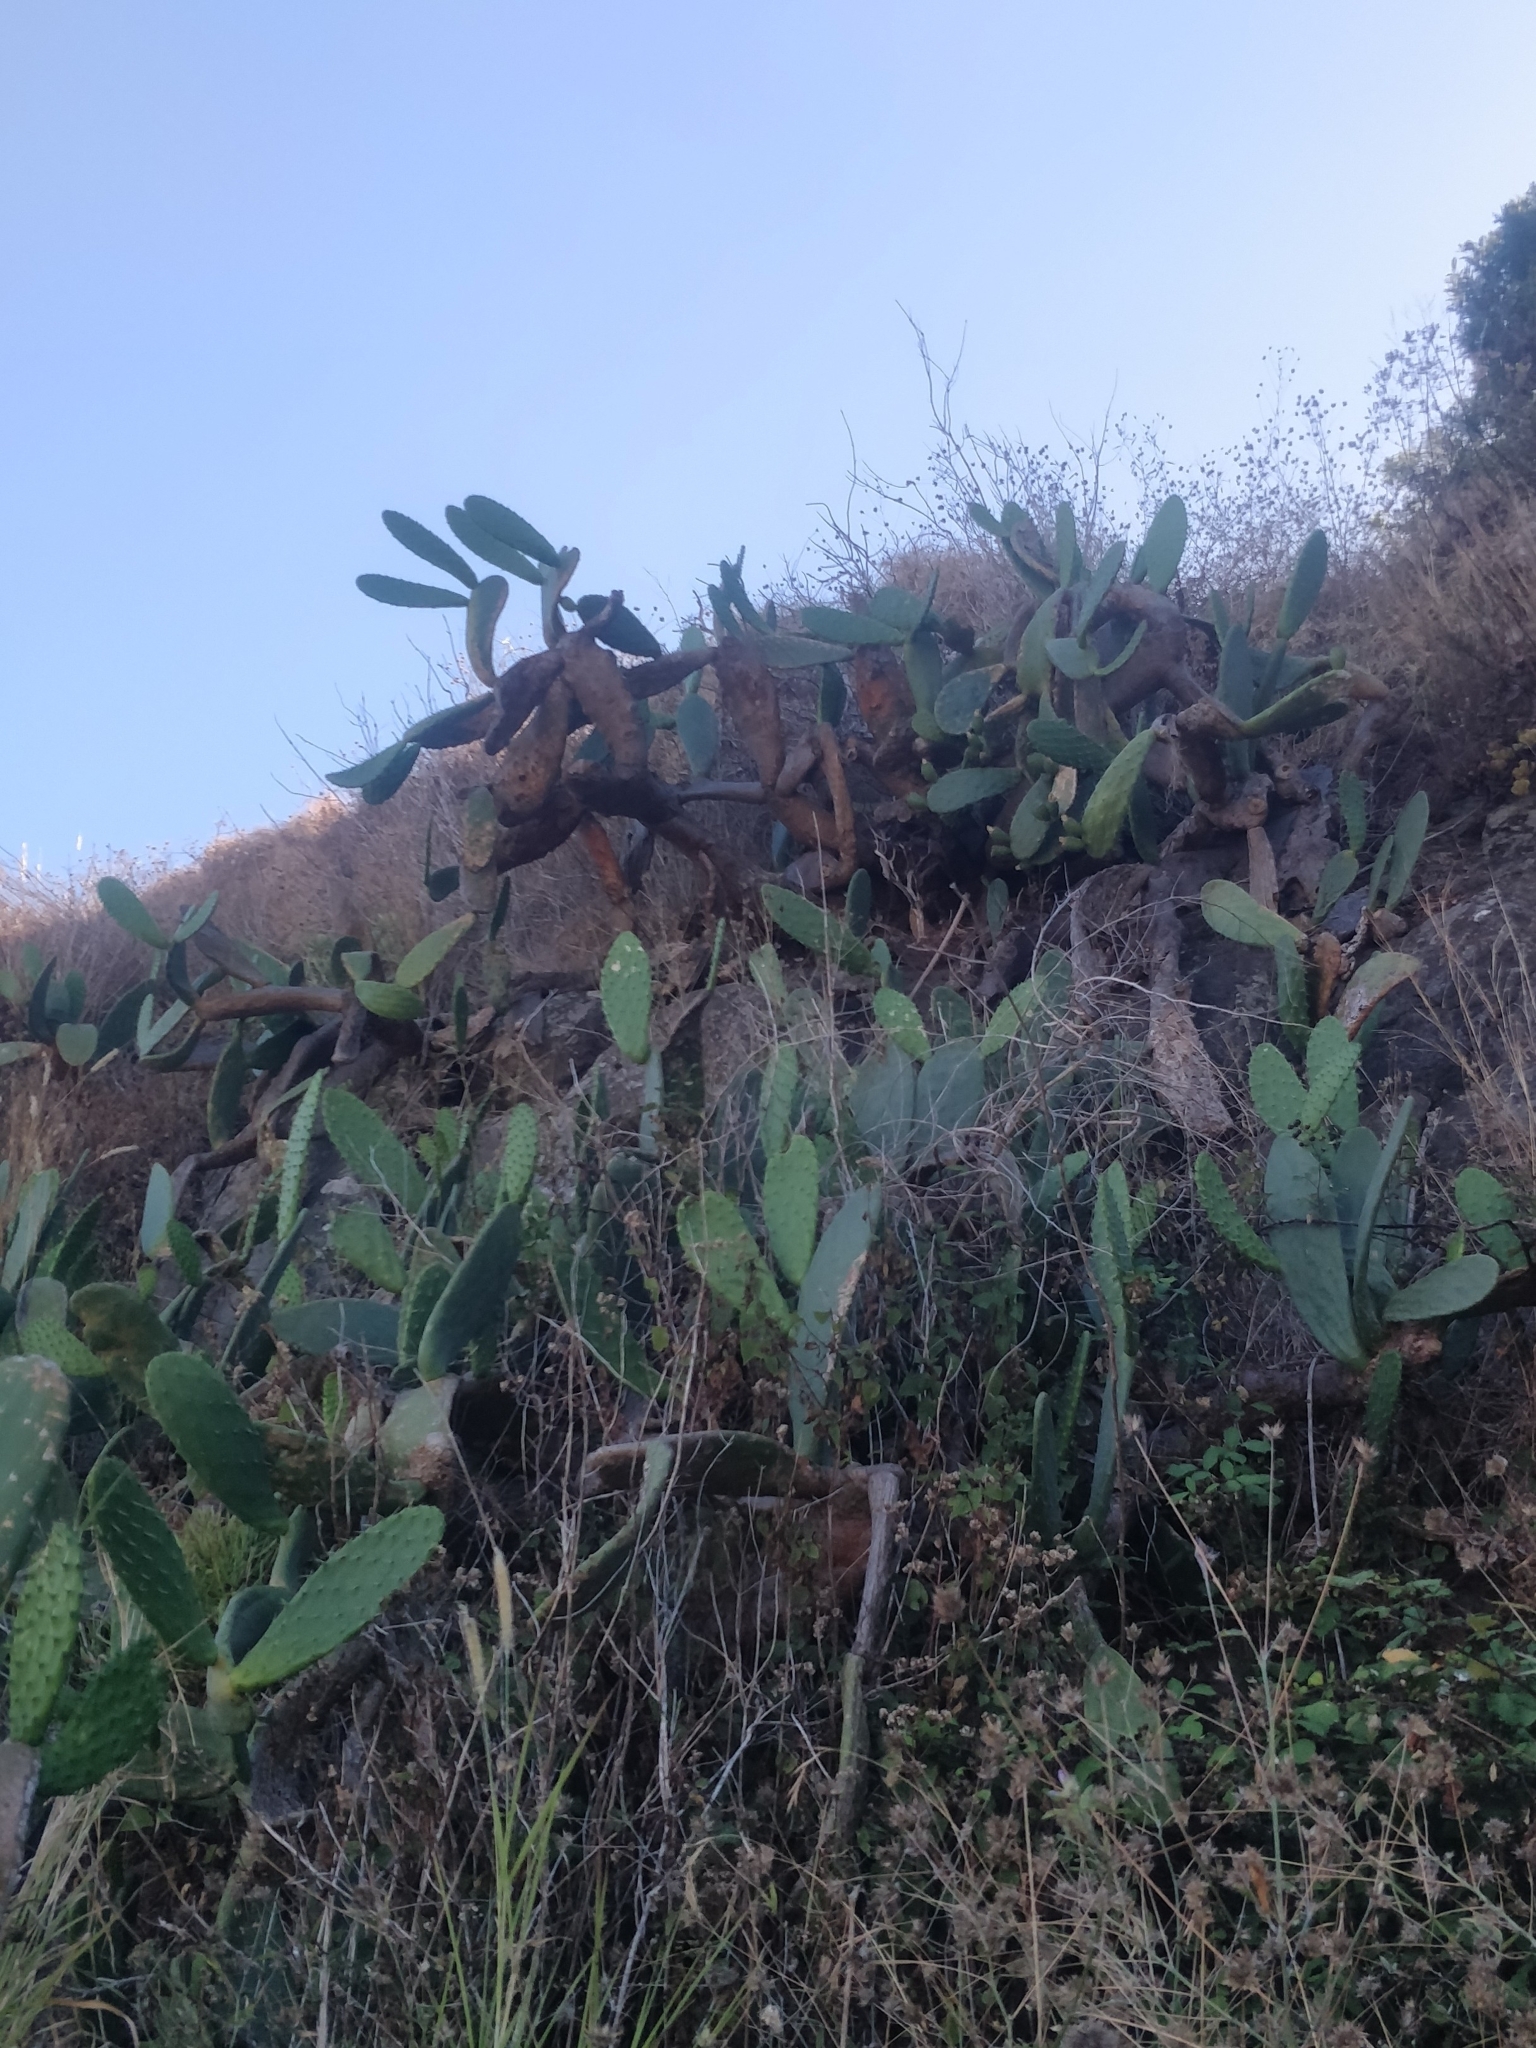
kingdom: Plantae
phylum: Tracheophyta
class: Magnoliopsida
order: Caryophyllales
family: Cactaceae
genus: Opuntia
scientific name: Opuntia ficus-indica
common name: Barbary fig
